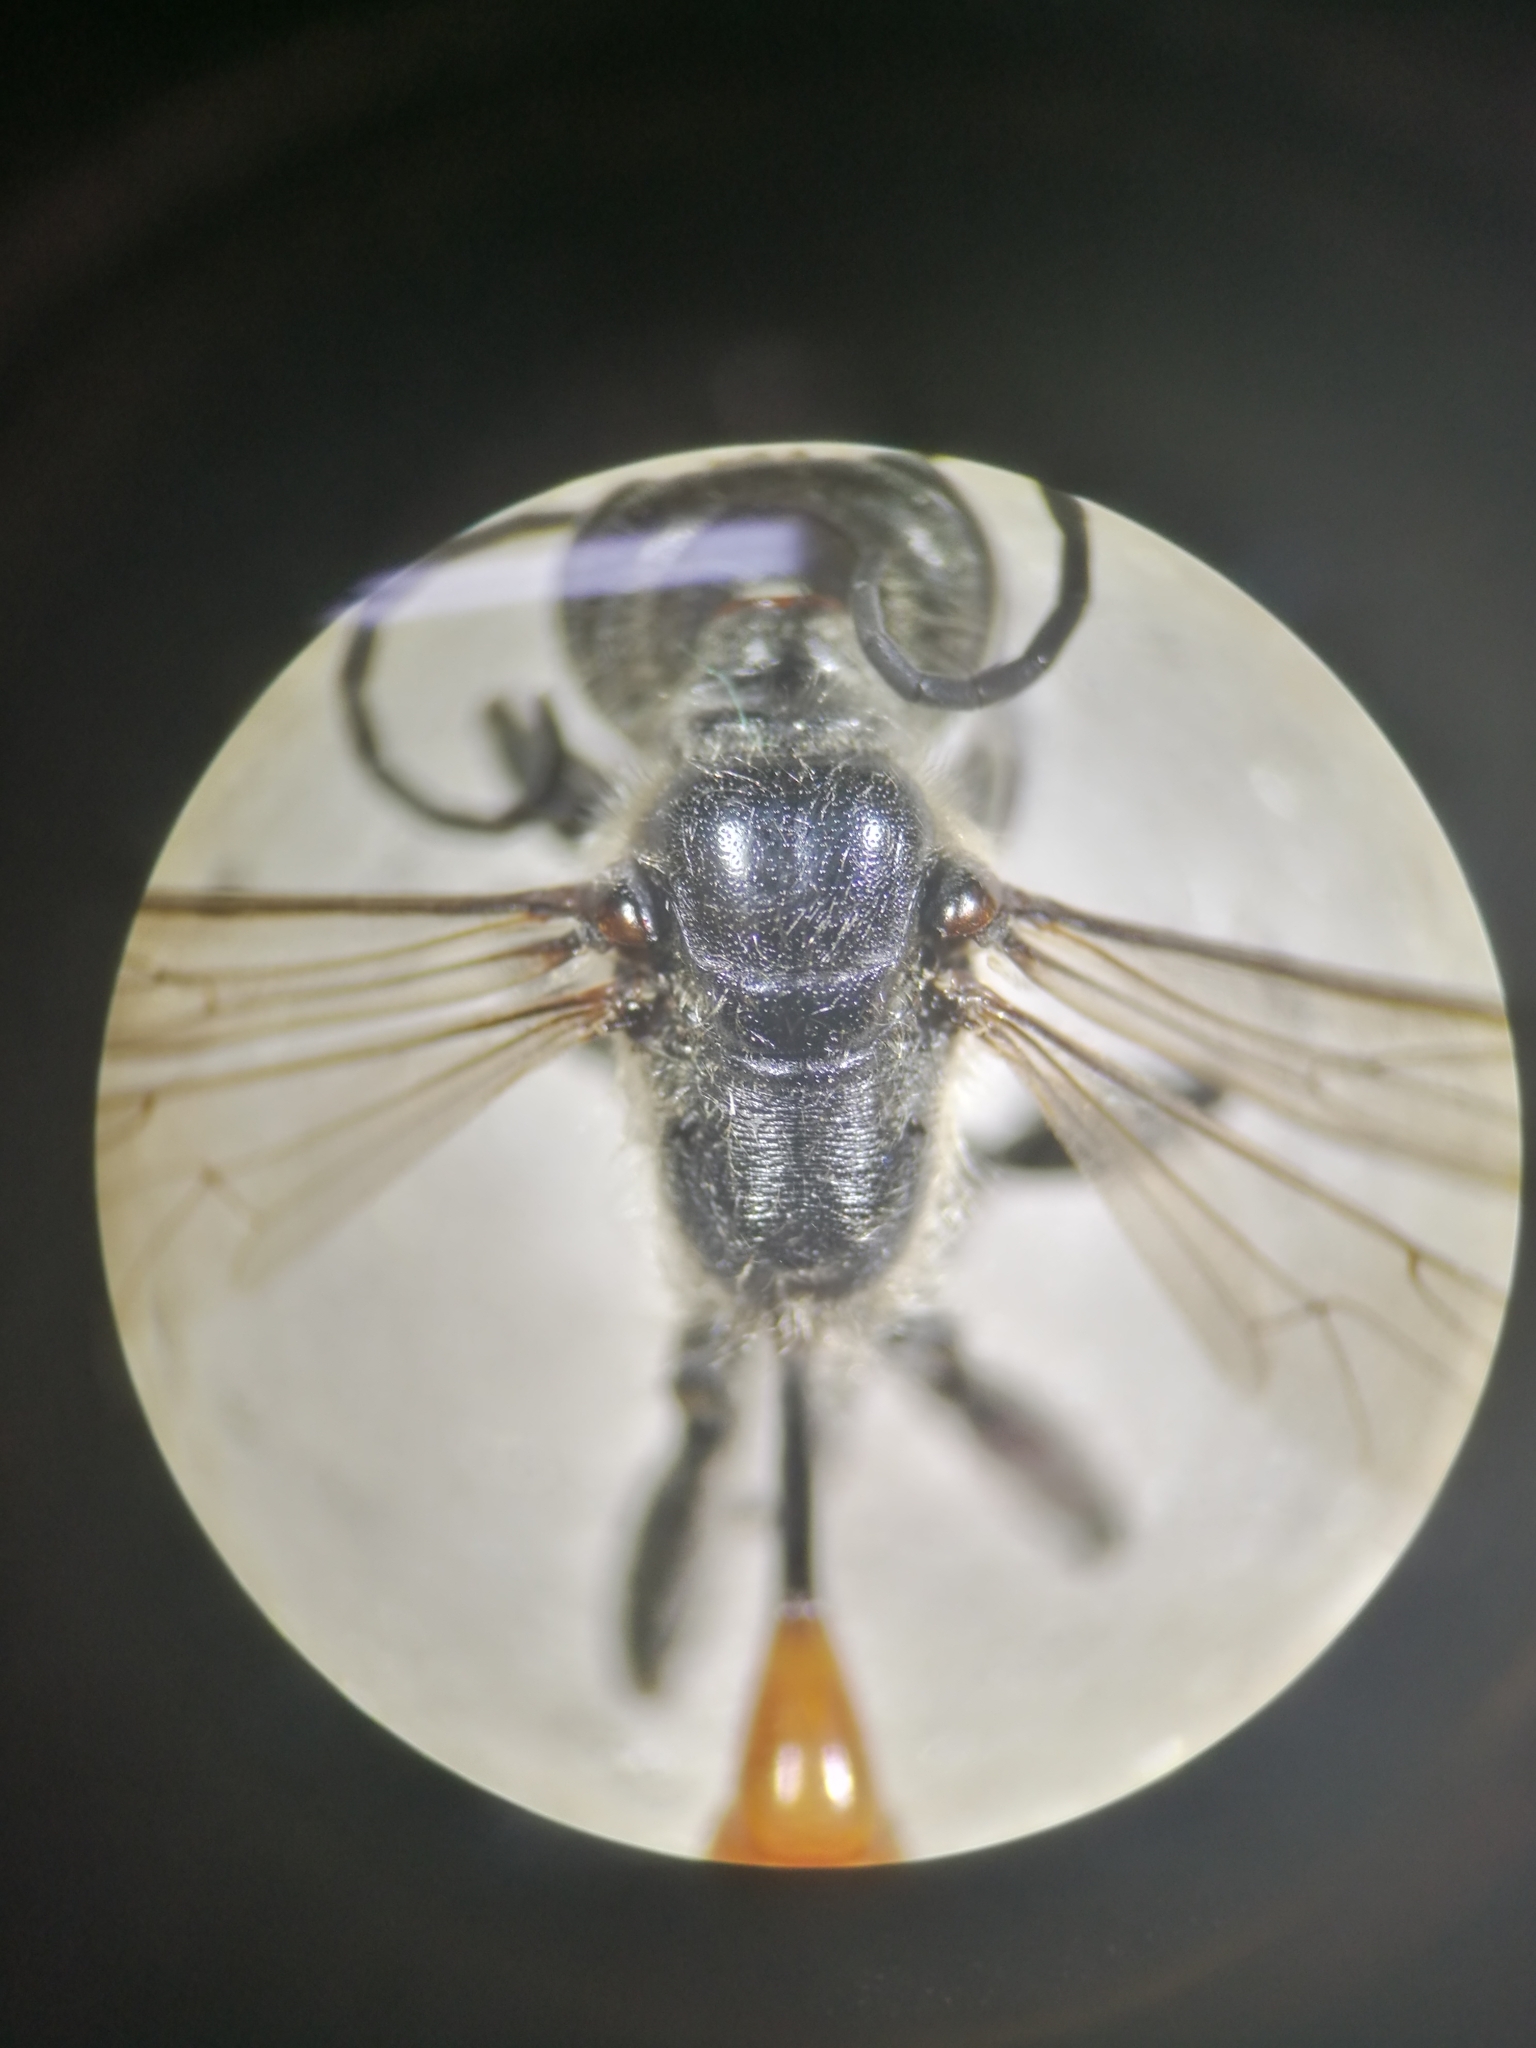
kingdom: Animalia
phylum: Arthropoda
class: Insecta
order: Hymenoptera
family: Sphecidae
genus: Podalonia
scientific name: Podalonia tydei
